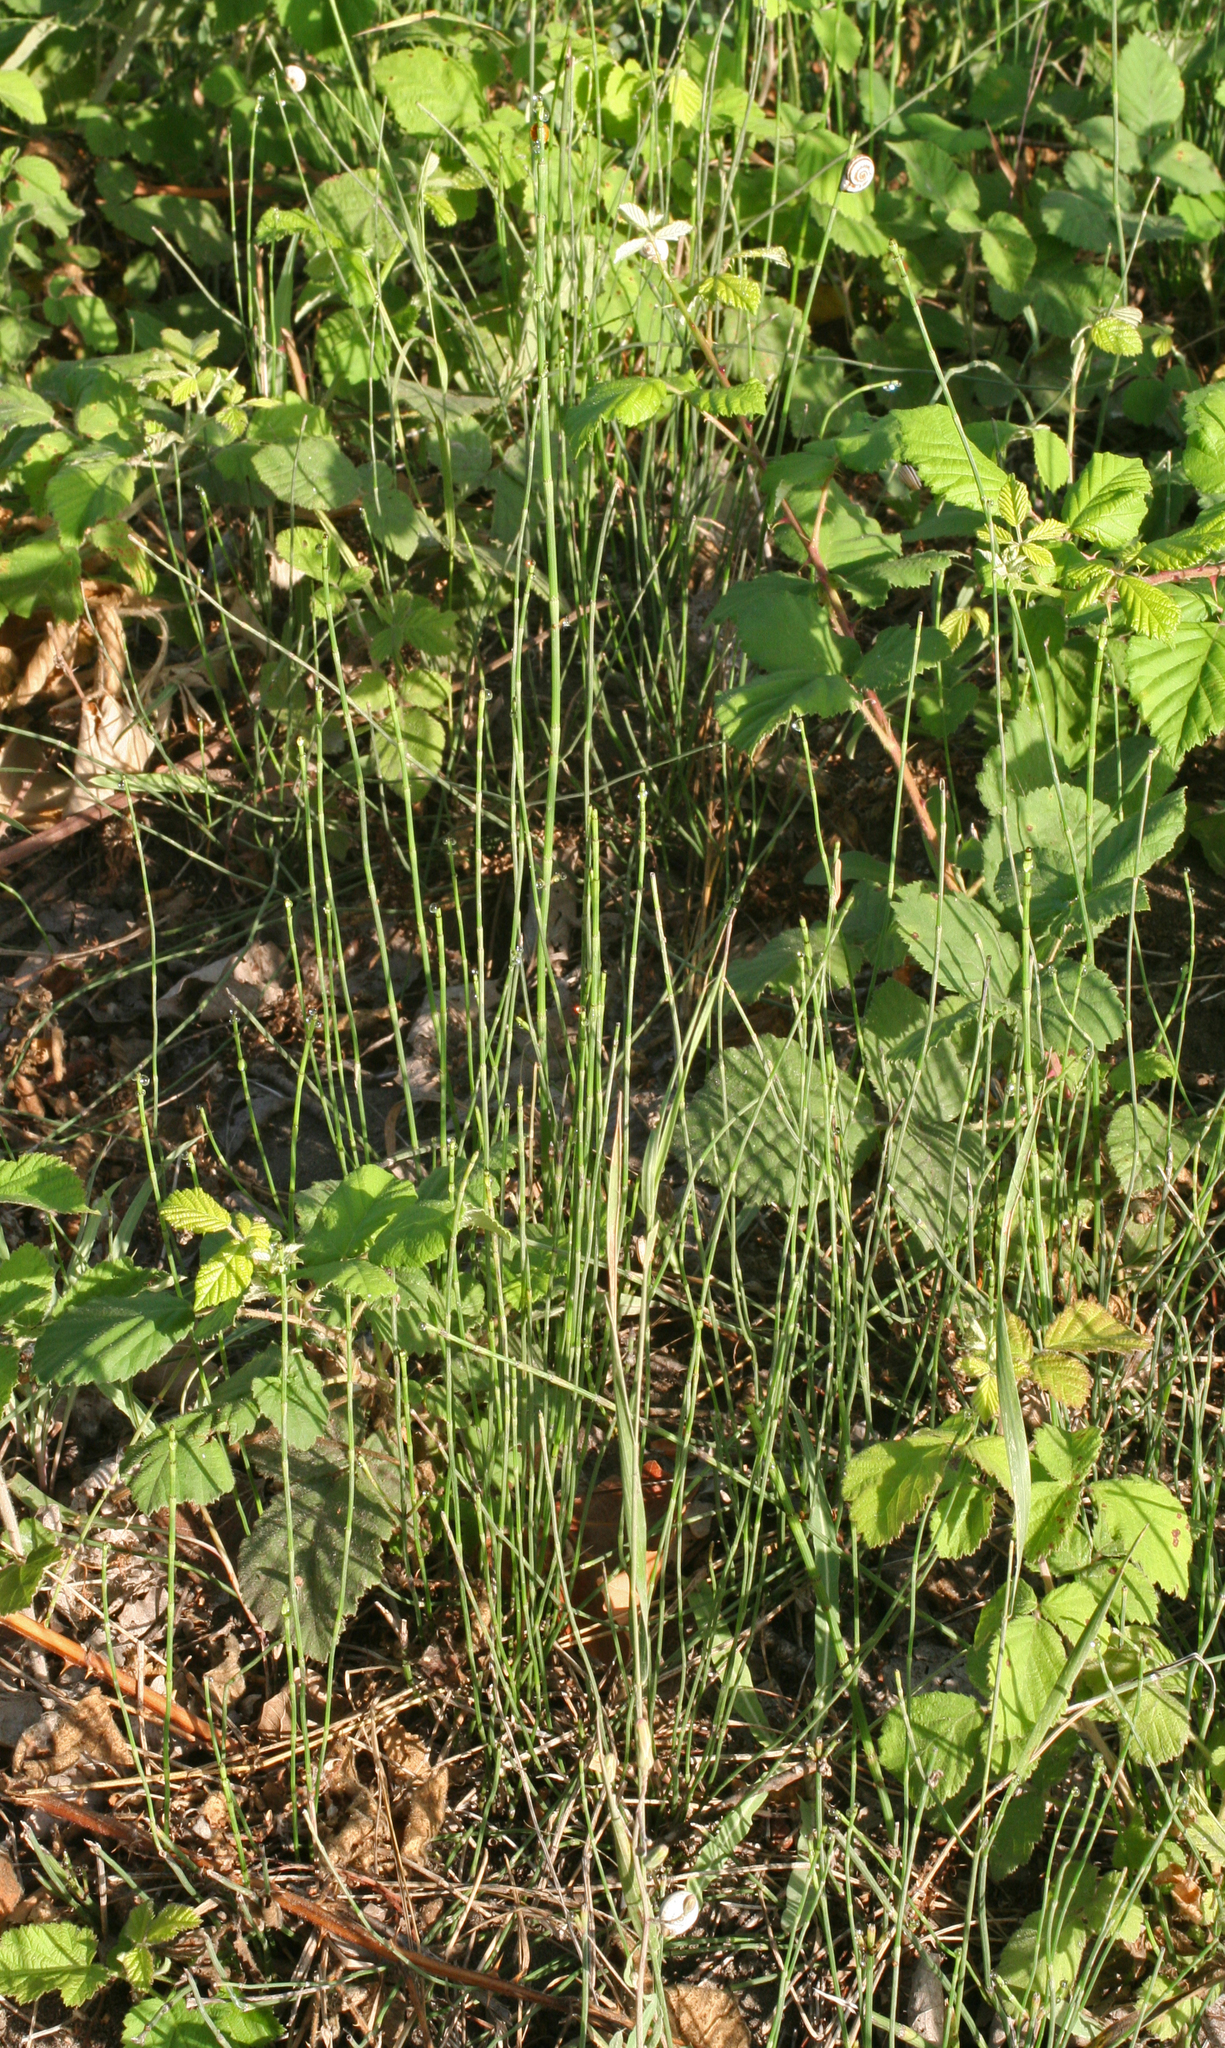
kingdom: Plantae
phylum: Tracheophyta
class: Polypodiopsida
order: Equisetales
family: Equisetaceae
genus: Equisetum
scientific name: Equisetum ramosissimum
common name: Branched horsetail
